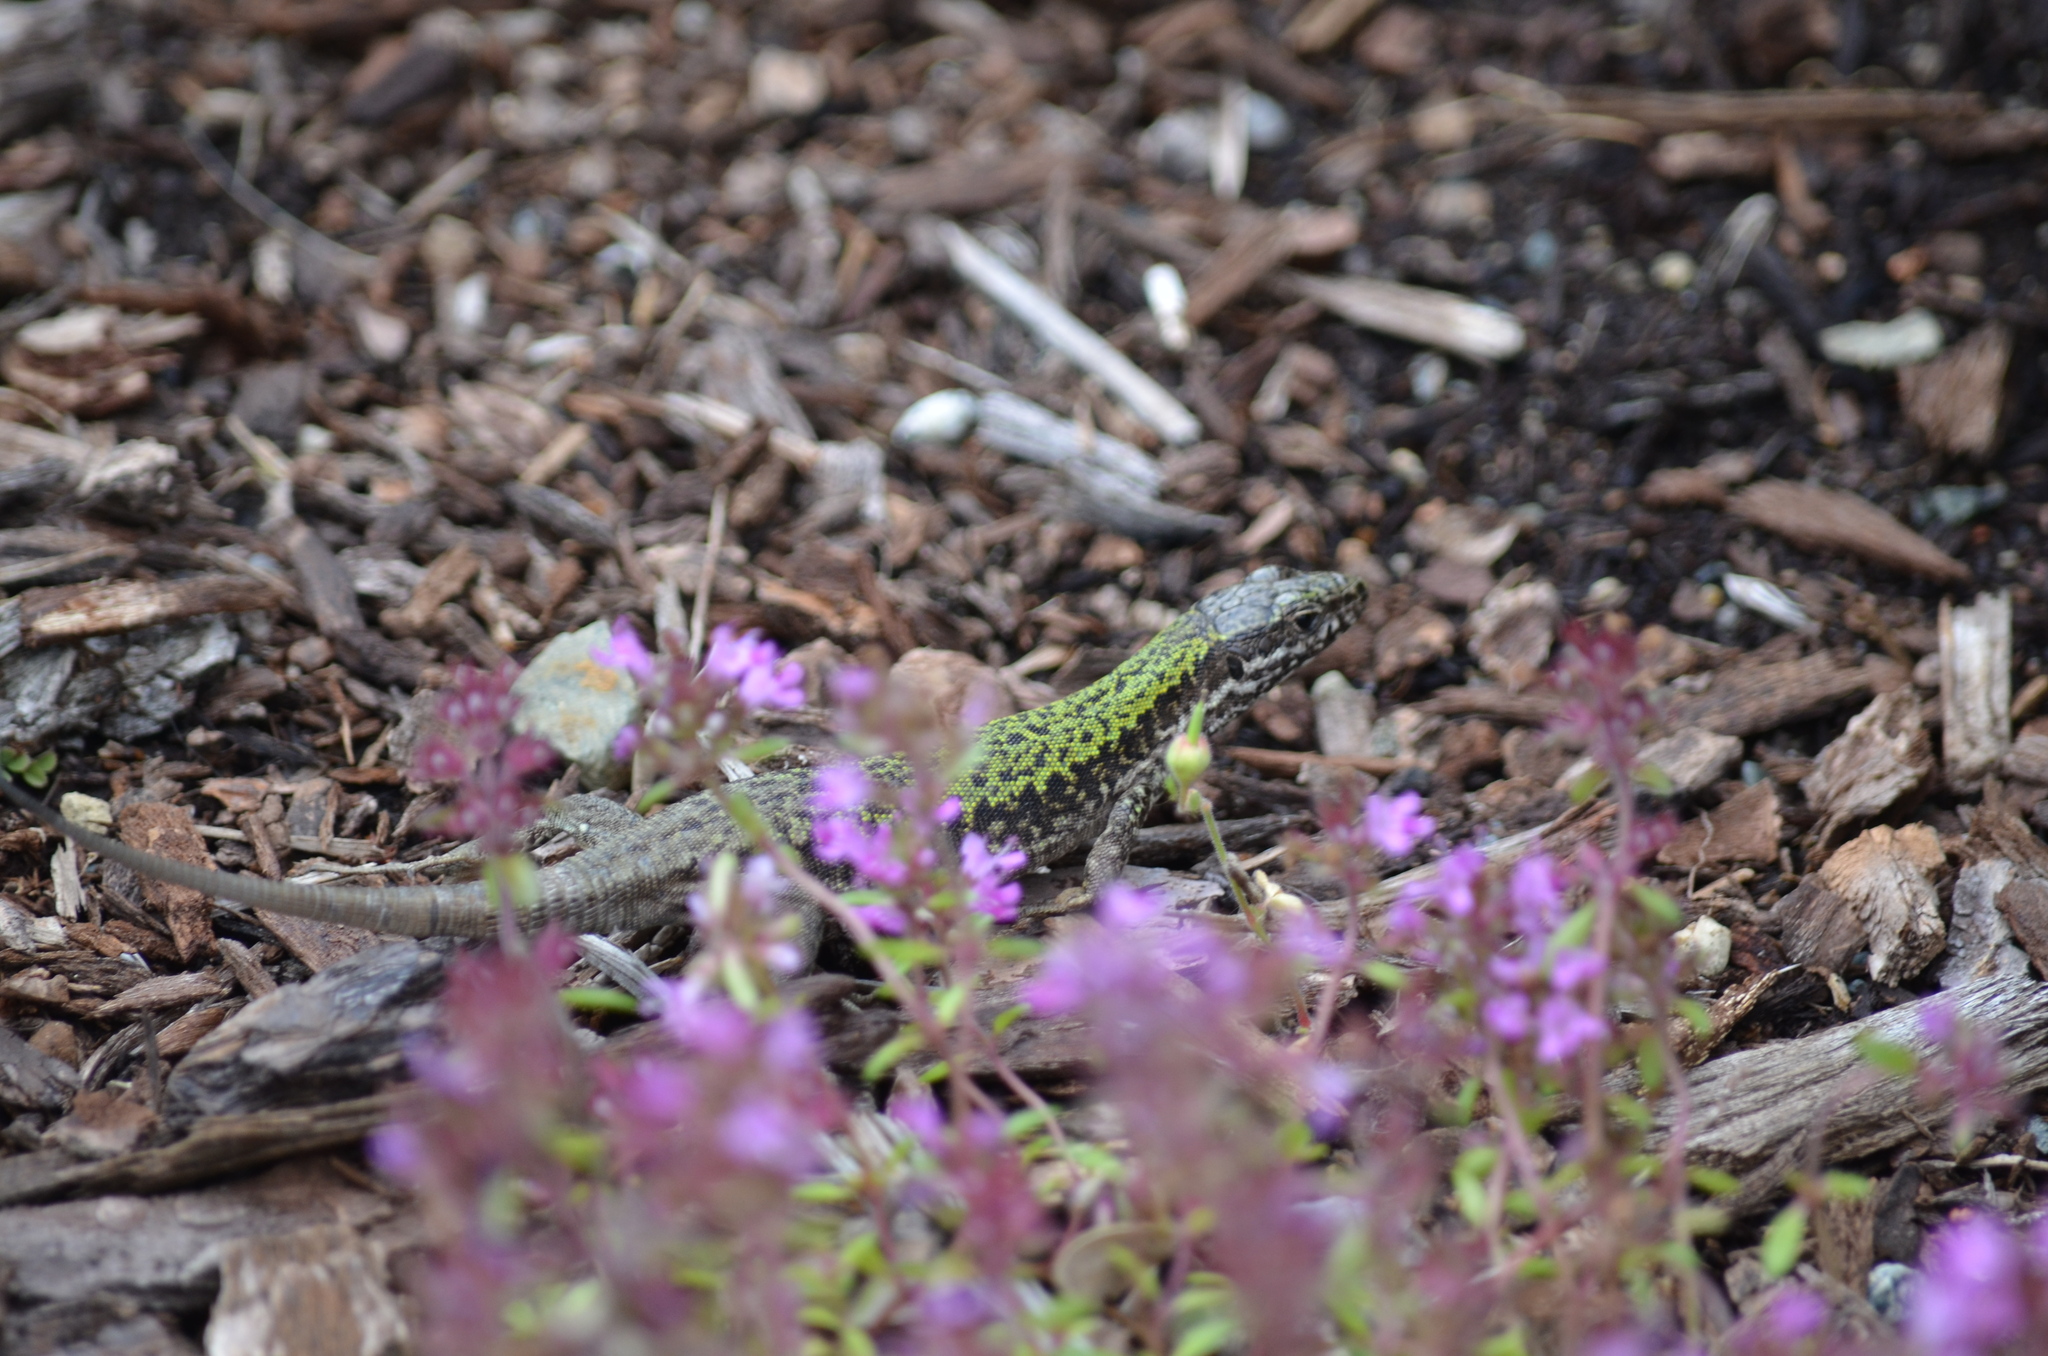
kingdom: Animalia
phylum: Chordata
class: Squamata
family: Lacertidae
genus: Podarcis
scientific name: Podarcis muralis
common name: Common wall lizard
